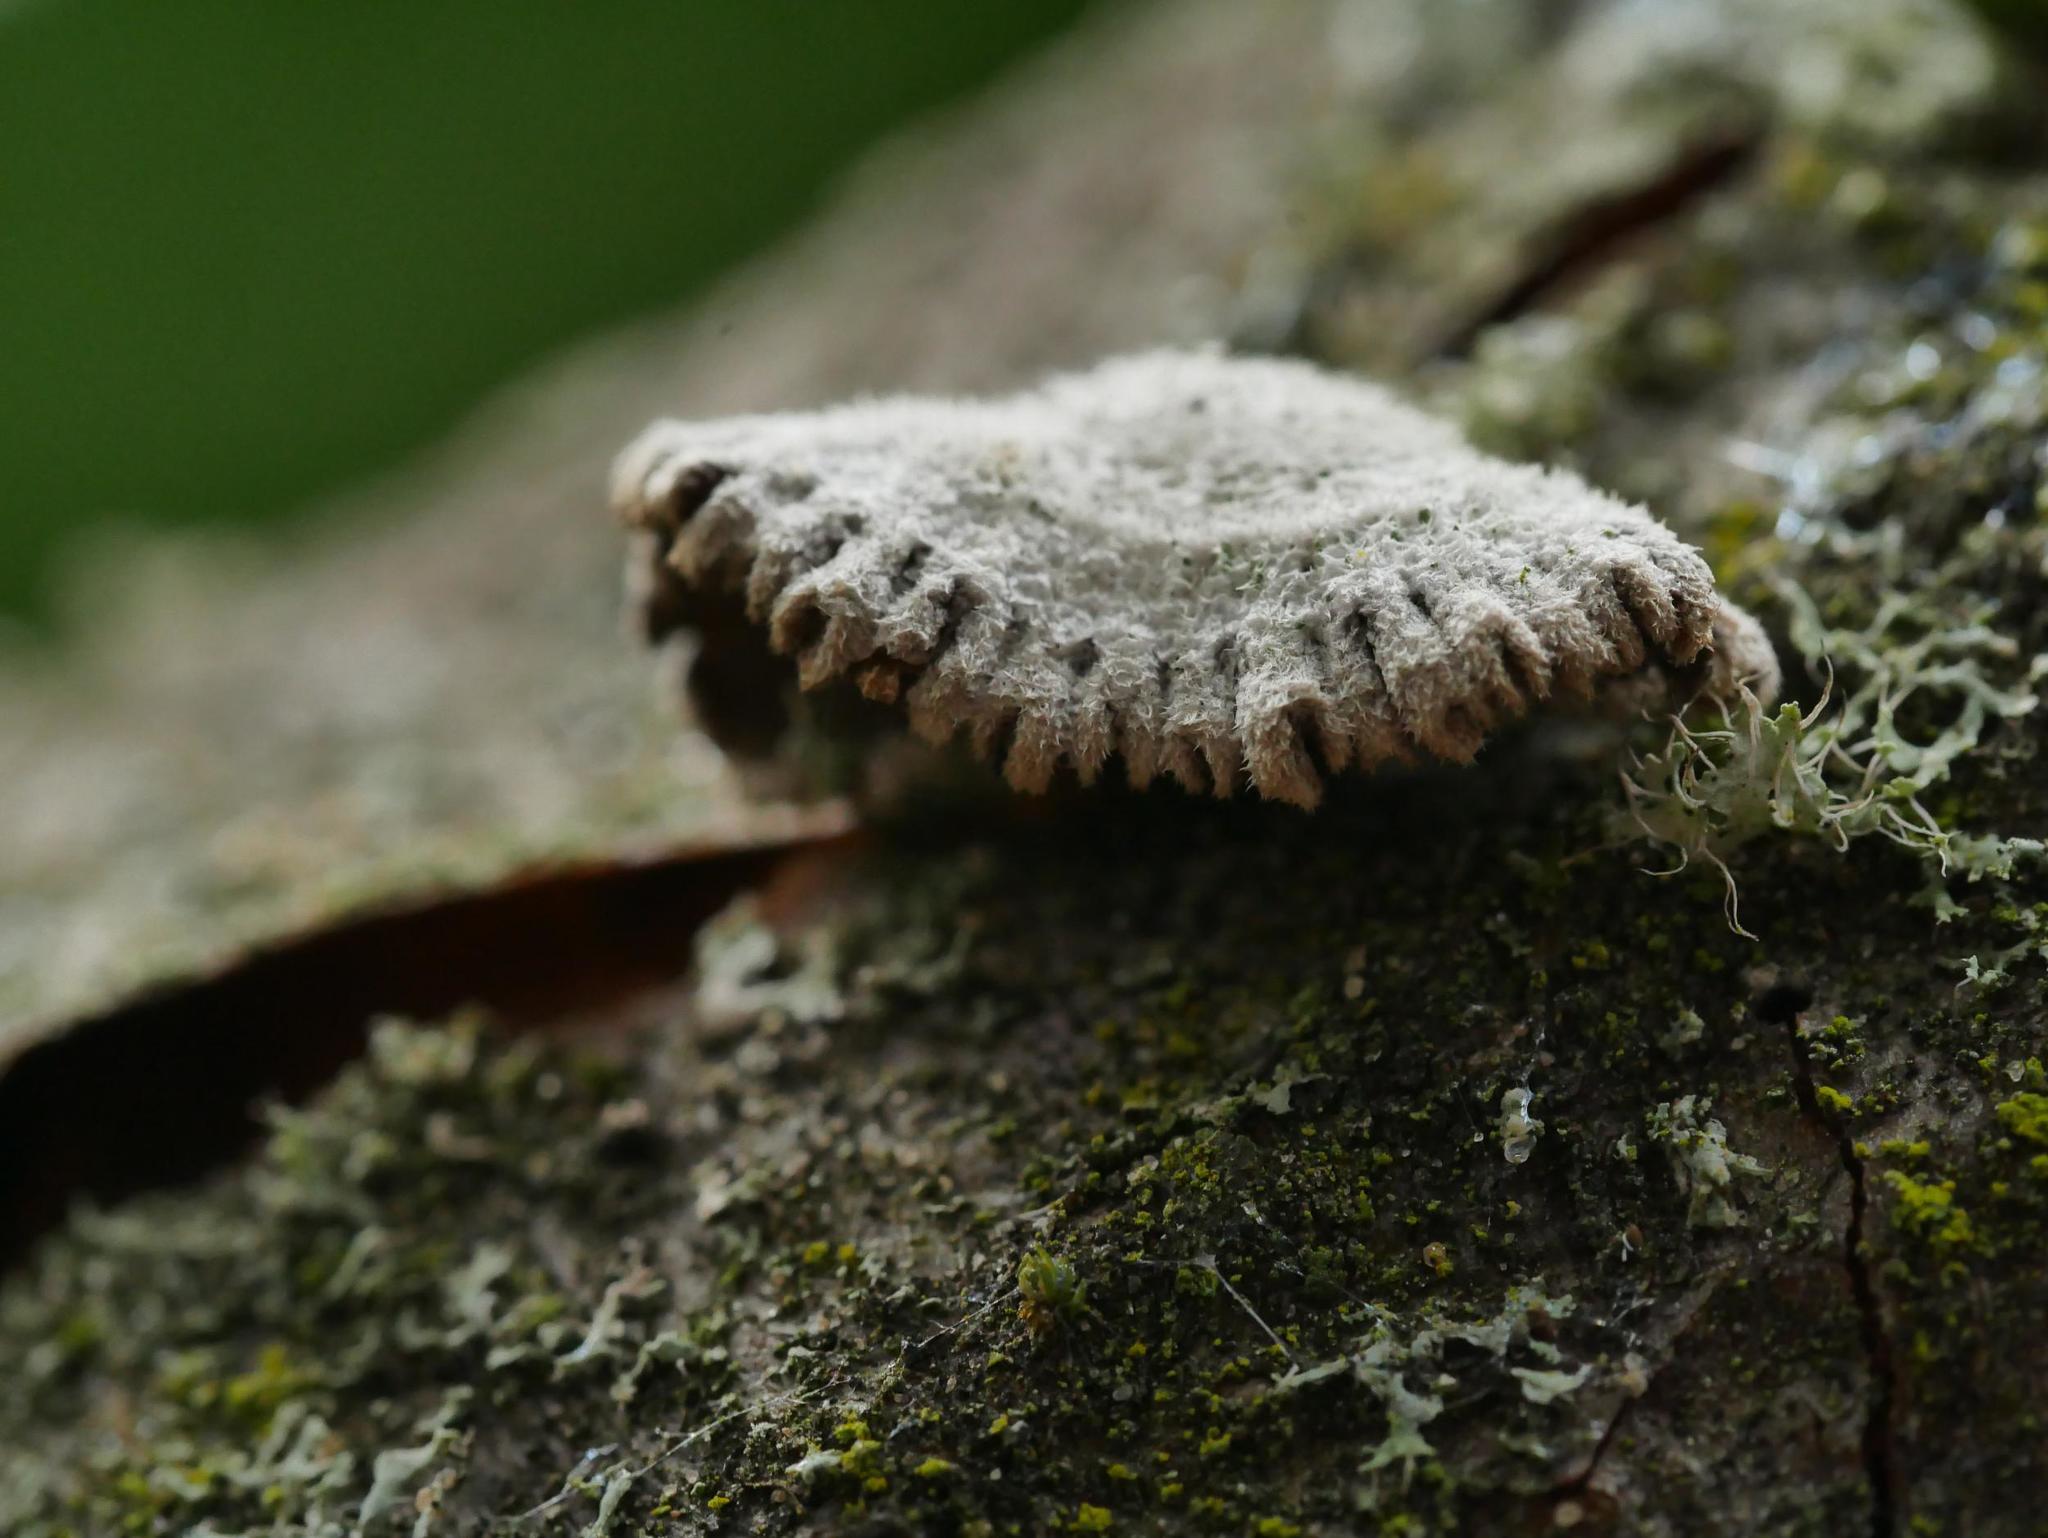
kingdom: Fungi
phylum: Basidiomycota
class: Agaricomycetes
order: Agaricales
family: Schizophyllaceae
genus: Schizophyllum
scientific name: Schizophyllum commune
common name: Common porecrust
